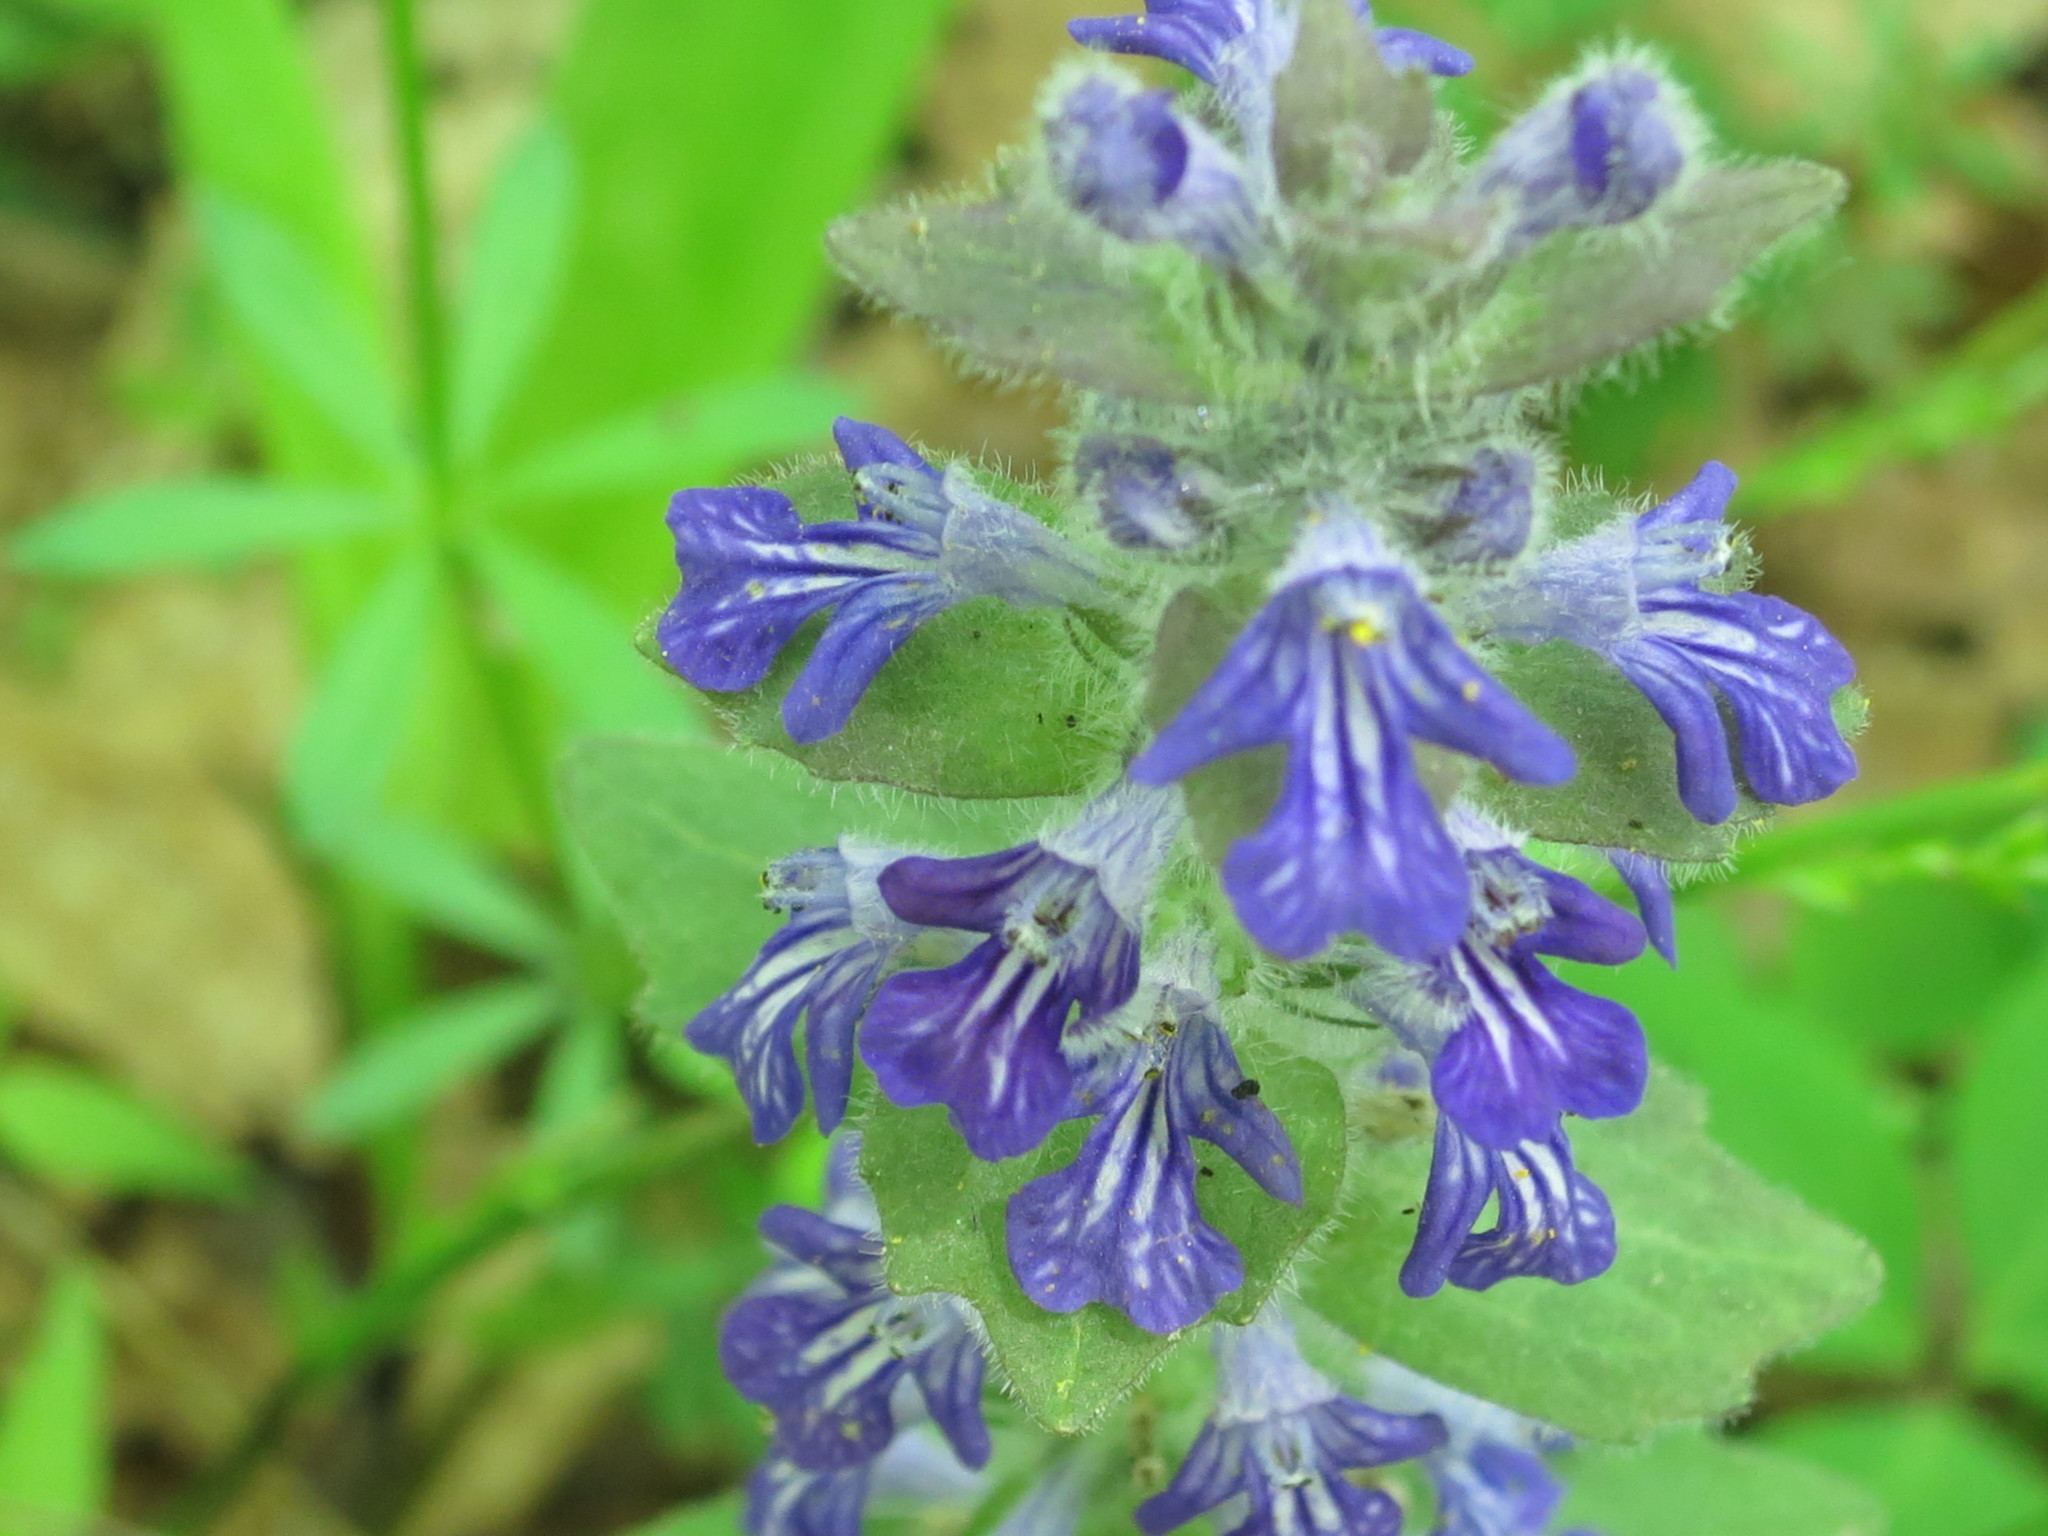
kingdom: Plantae
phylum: Tracheophyta
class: Magnoliopsida
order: Lamiales
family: Lamiaceae
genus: Ajuga
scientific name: Ajuga multiflora
